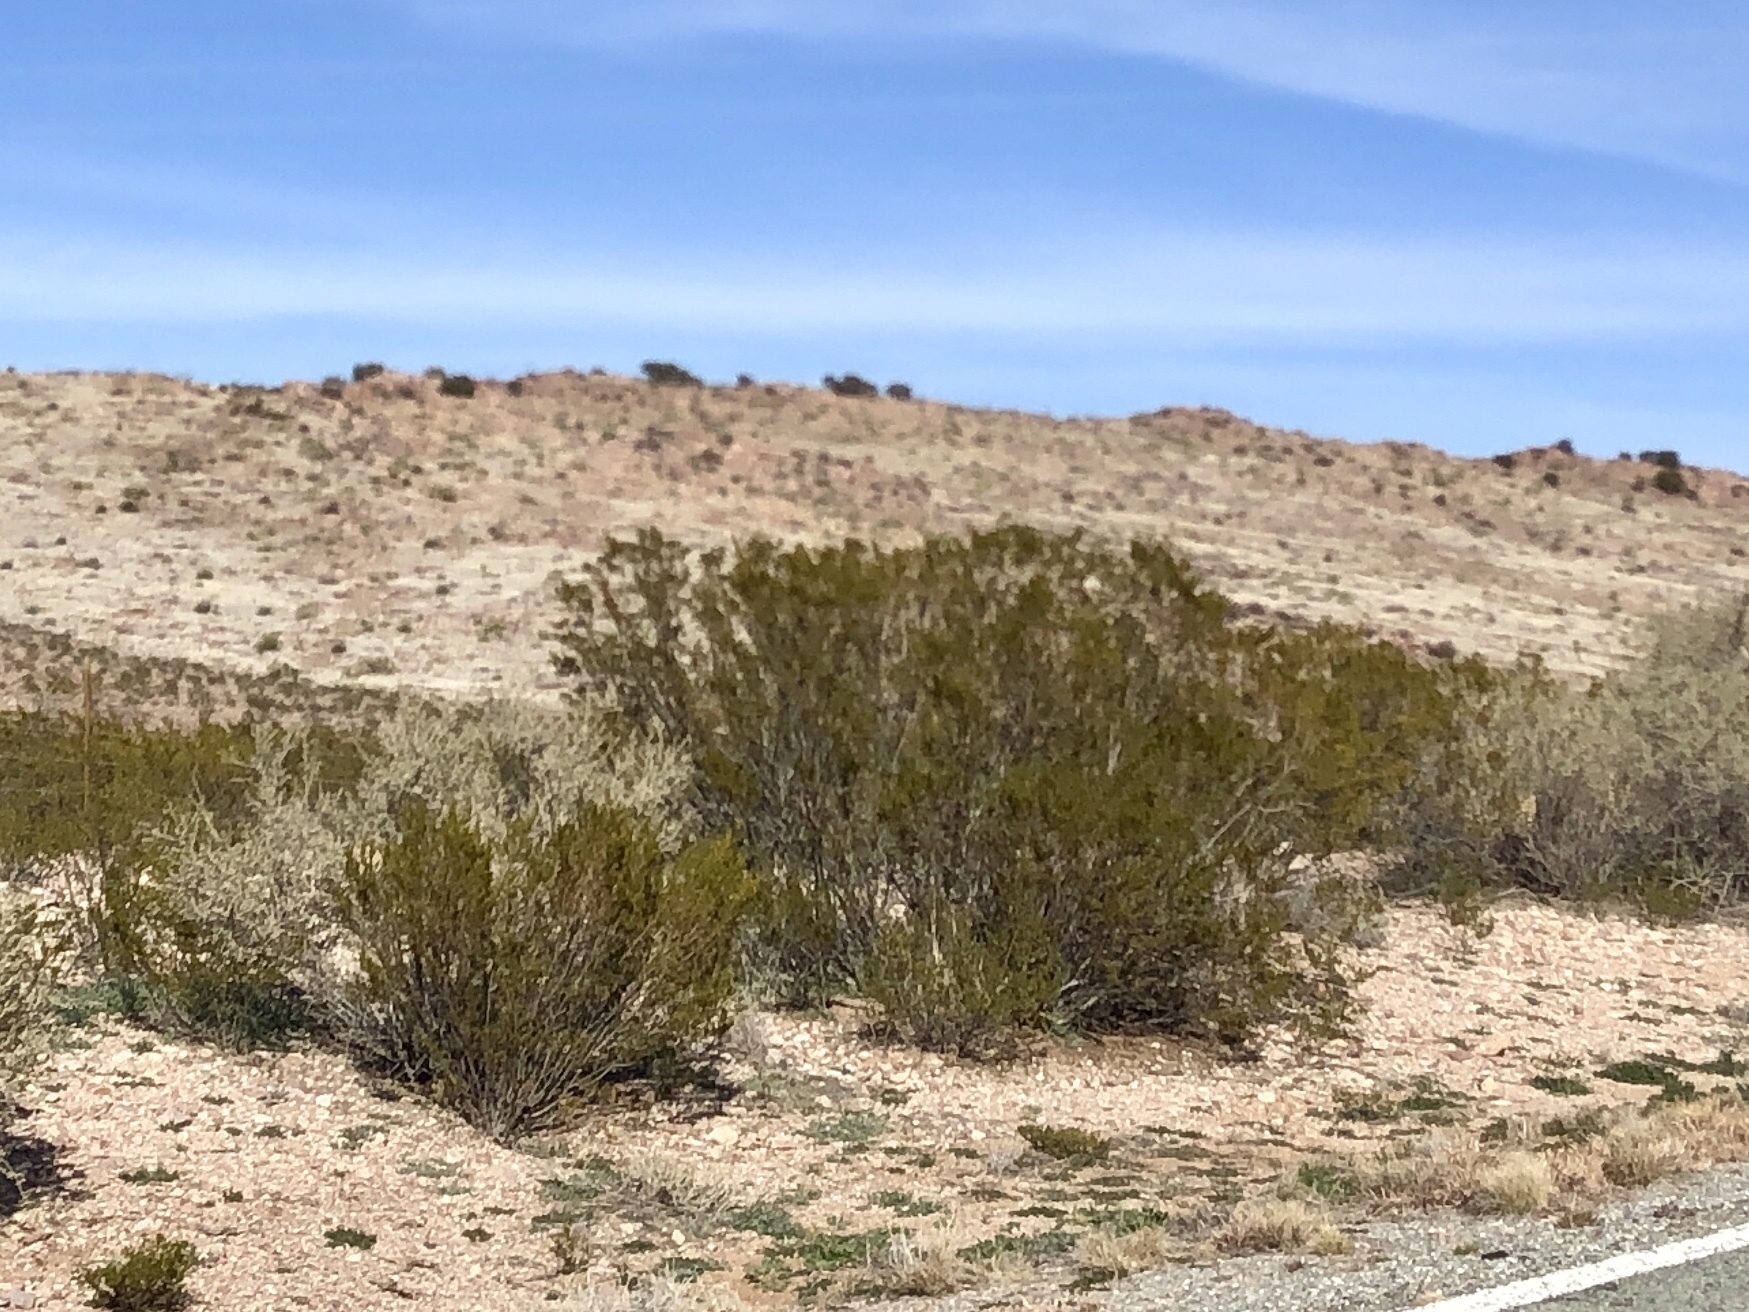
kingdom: Plantae
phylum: Tracheophyta
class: Magnoliopsida
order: Zygophyllales
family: Zygophyllaceae
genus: Larrea
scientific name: Larrea tridentata
